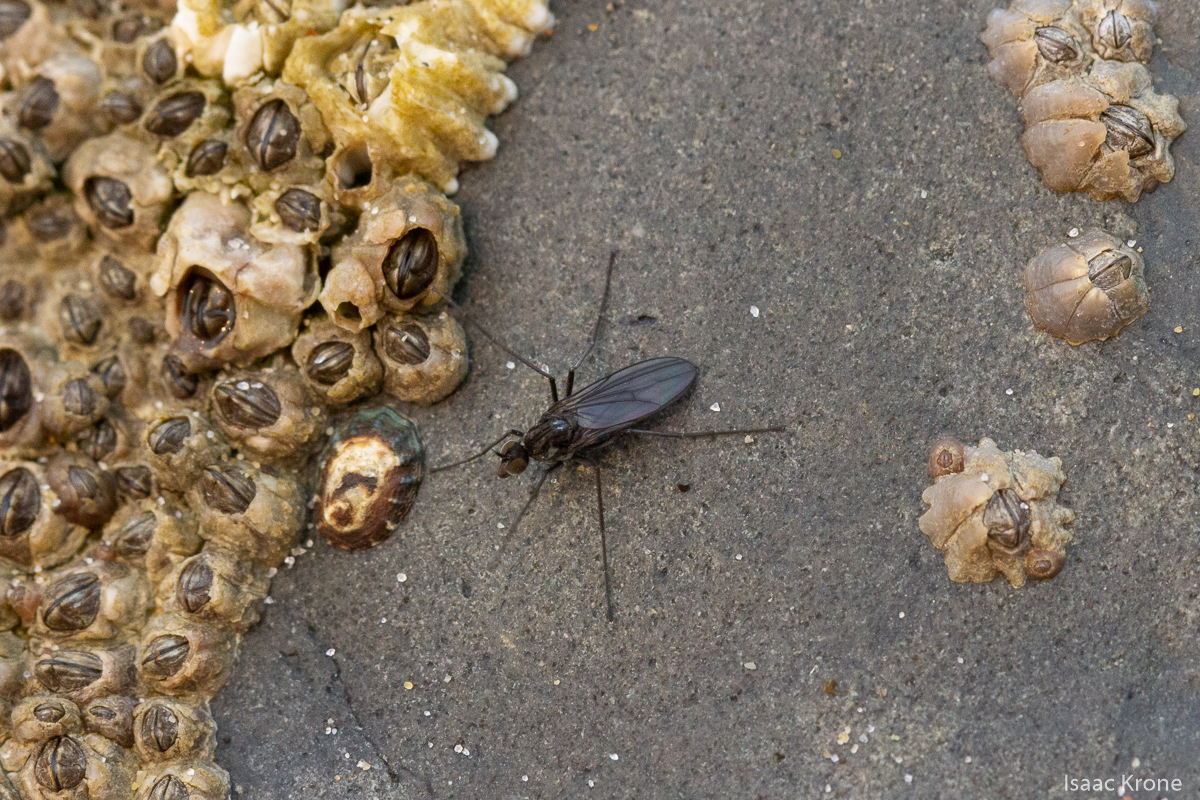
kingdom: Animalia
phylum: Arthropoda
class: Insecta
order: Diptera
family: Dolichopodidae
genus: Thambemyia
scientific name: Thambemyia borealis
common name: Fly
